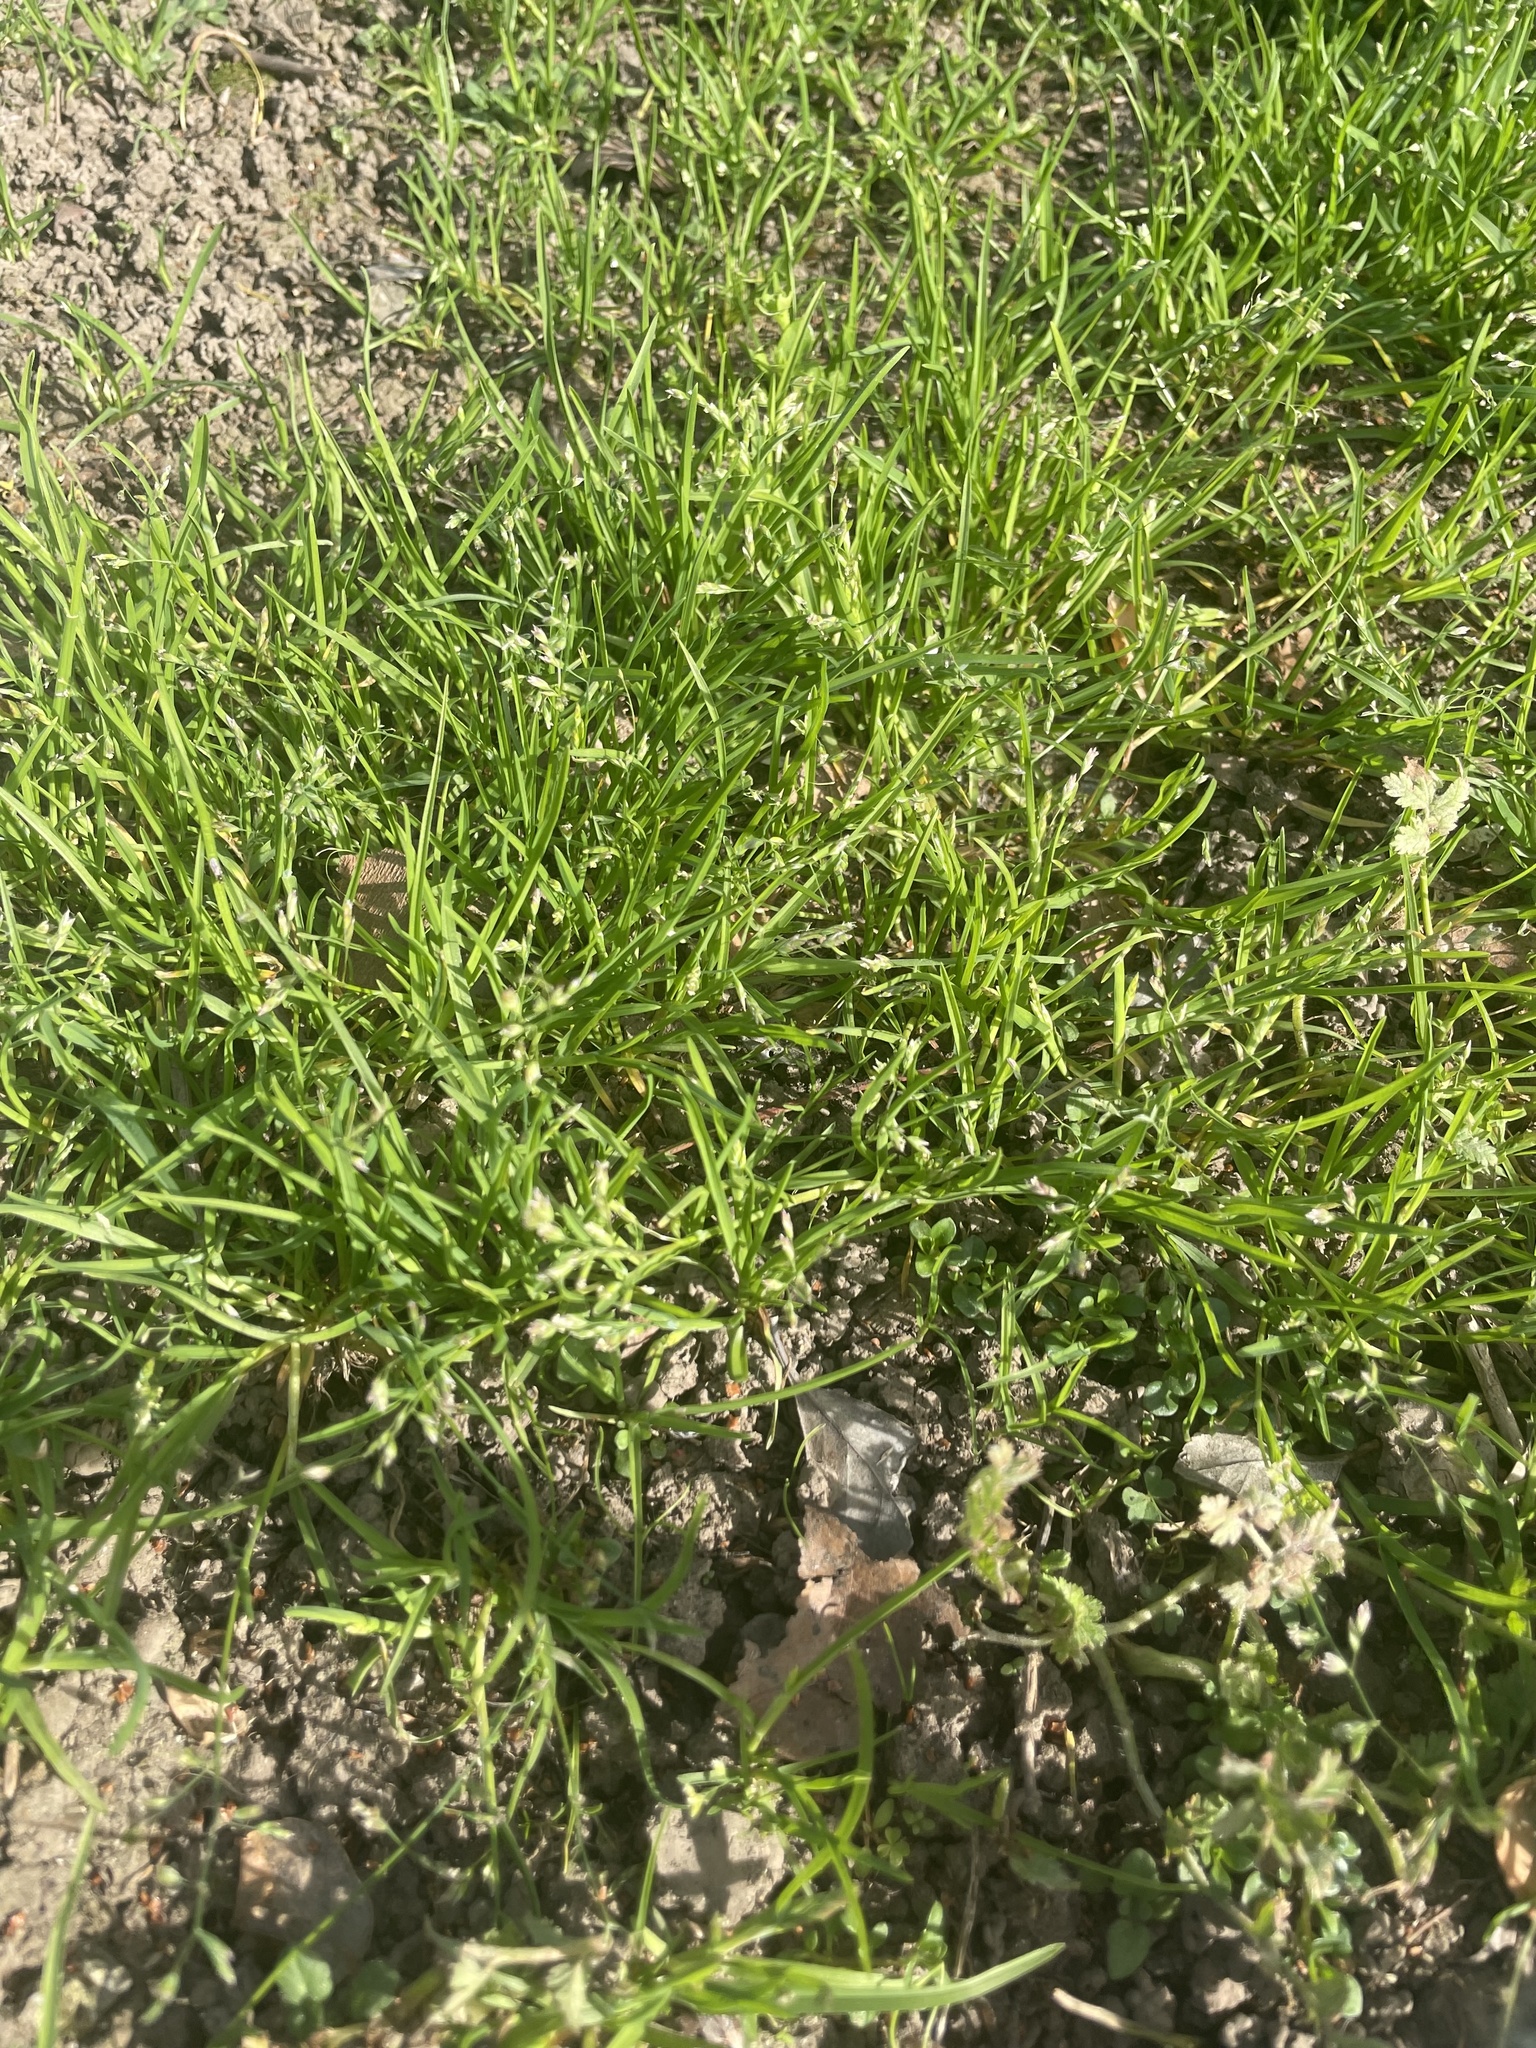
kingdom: Plantae
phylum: Tracheophyta
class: Liliopsida
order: Poales
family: Poaceae
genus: Poa
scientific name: Poa annua
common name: Annual bluegrass
